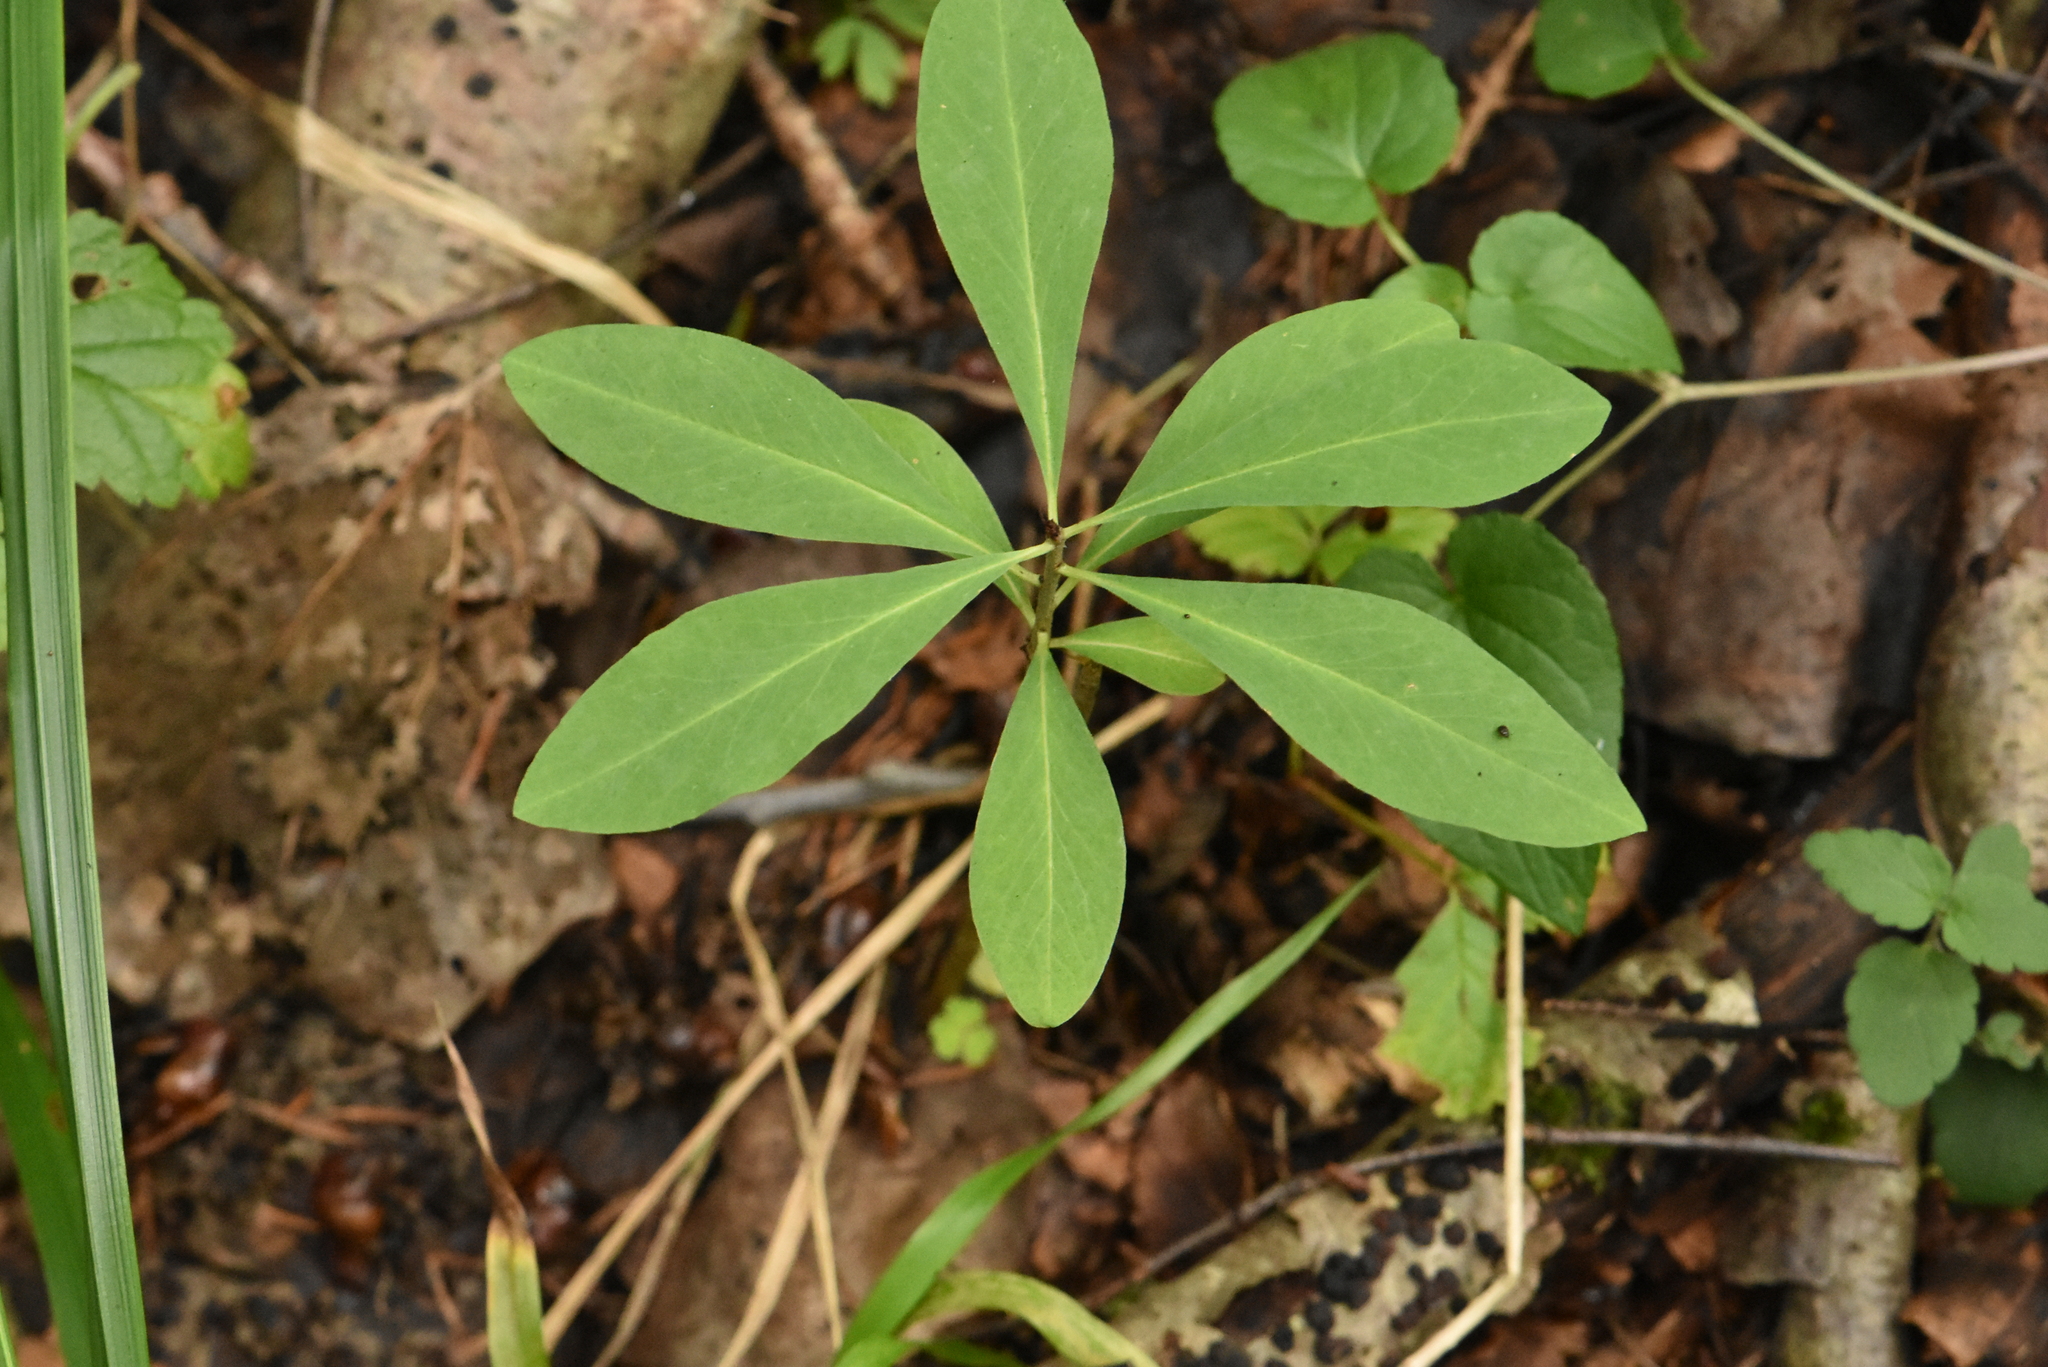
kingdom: Plantae
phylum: Tracheophyta
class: Magnoliopsida
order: Malvales
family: Thymelaeaceae
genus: Daphne
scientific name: Daphne mezereum
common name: Mezereon
